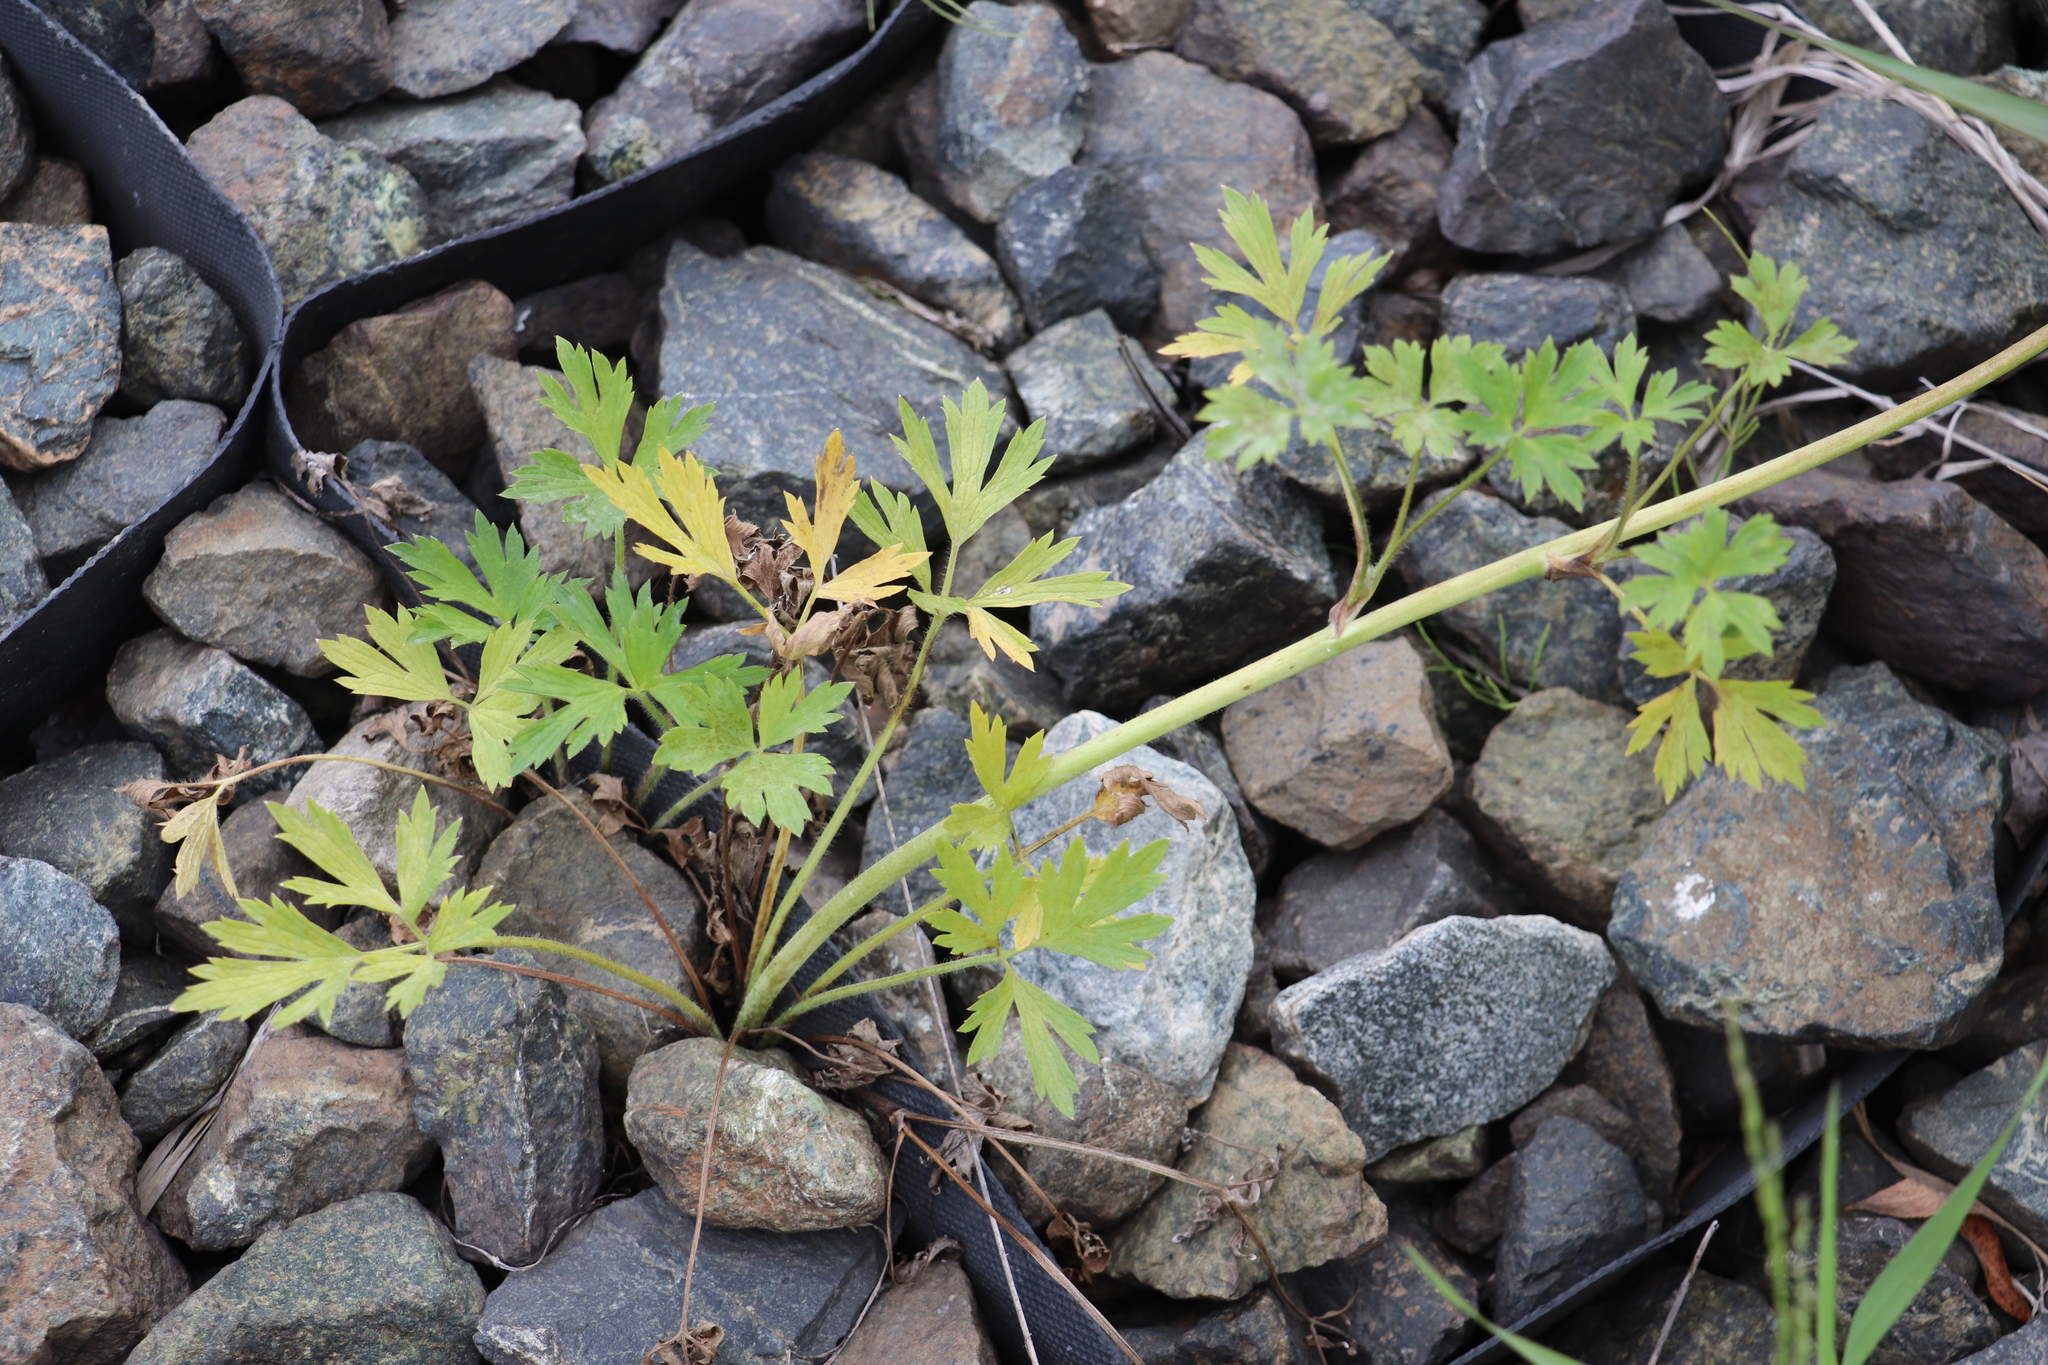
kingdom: Plantae
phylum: Tracheophyta
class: Magnoliopsida
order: Ranunculales
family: Ranunculaceae
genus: Ranunculus
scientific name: Ranunculus repens
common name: Creeping buttercup
